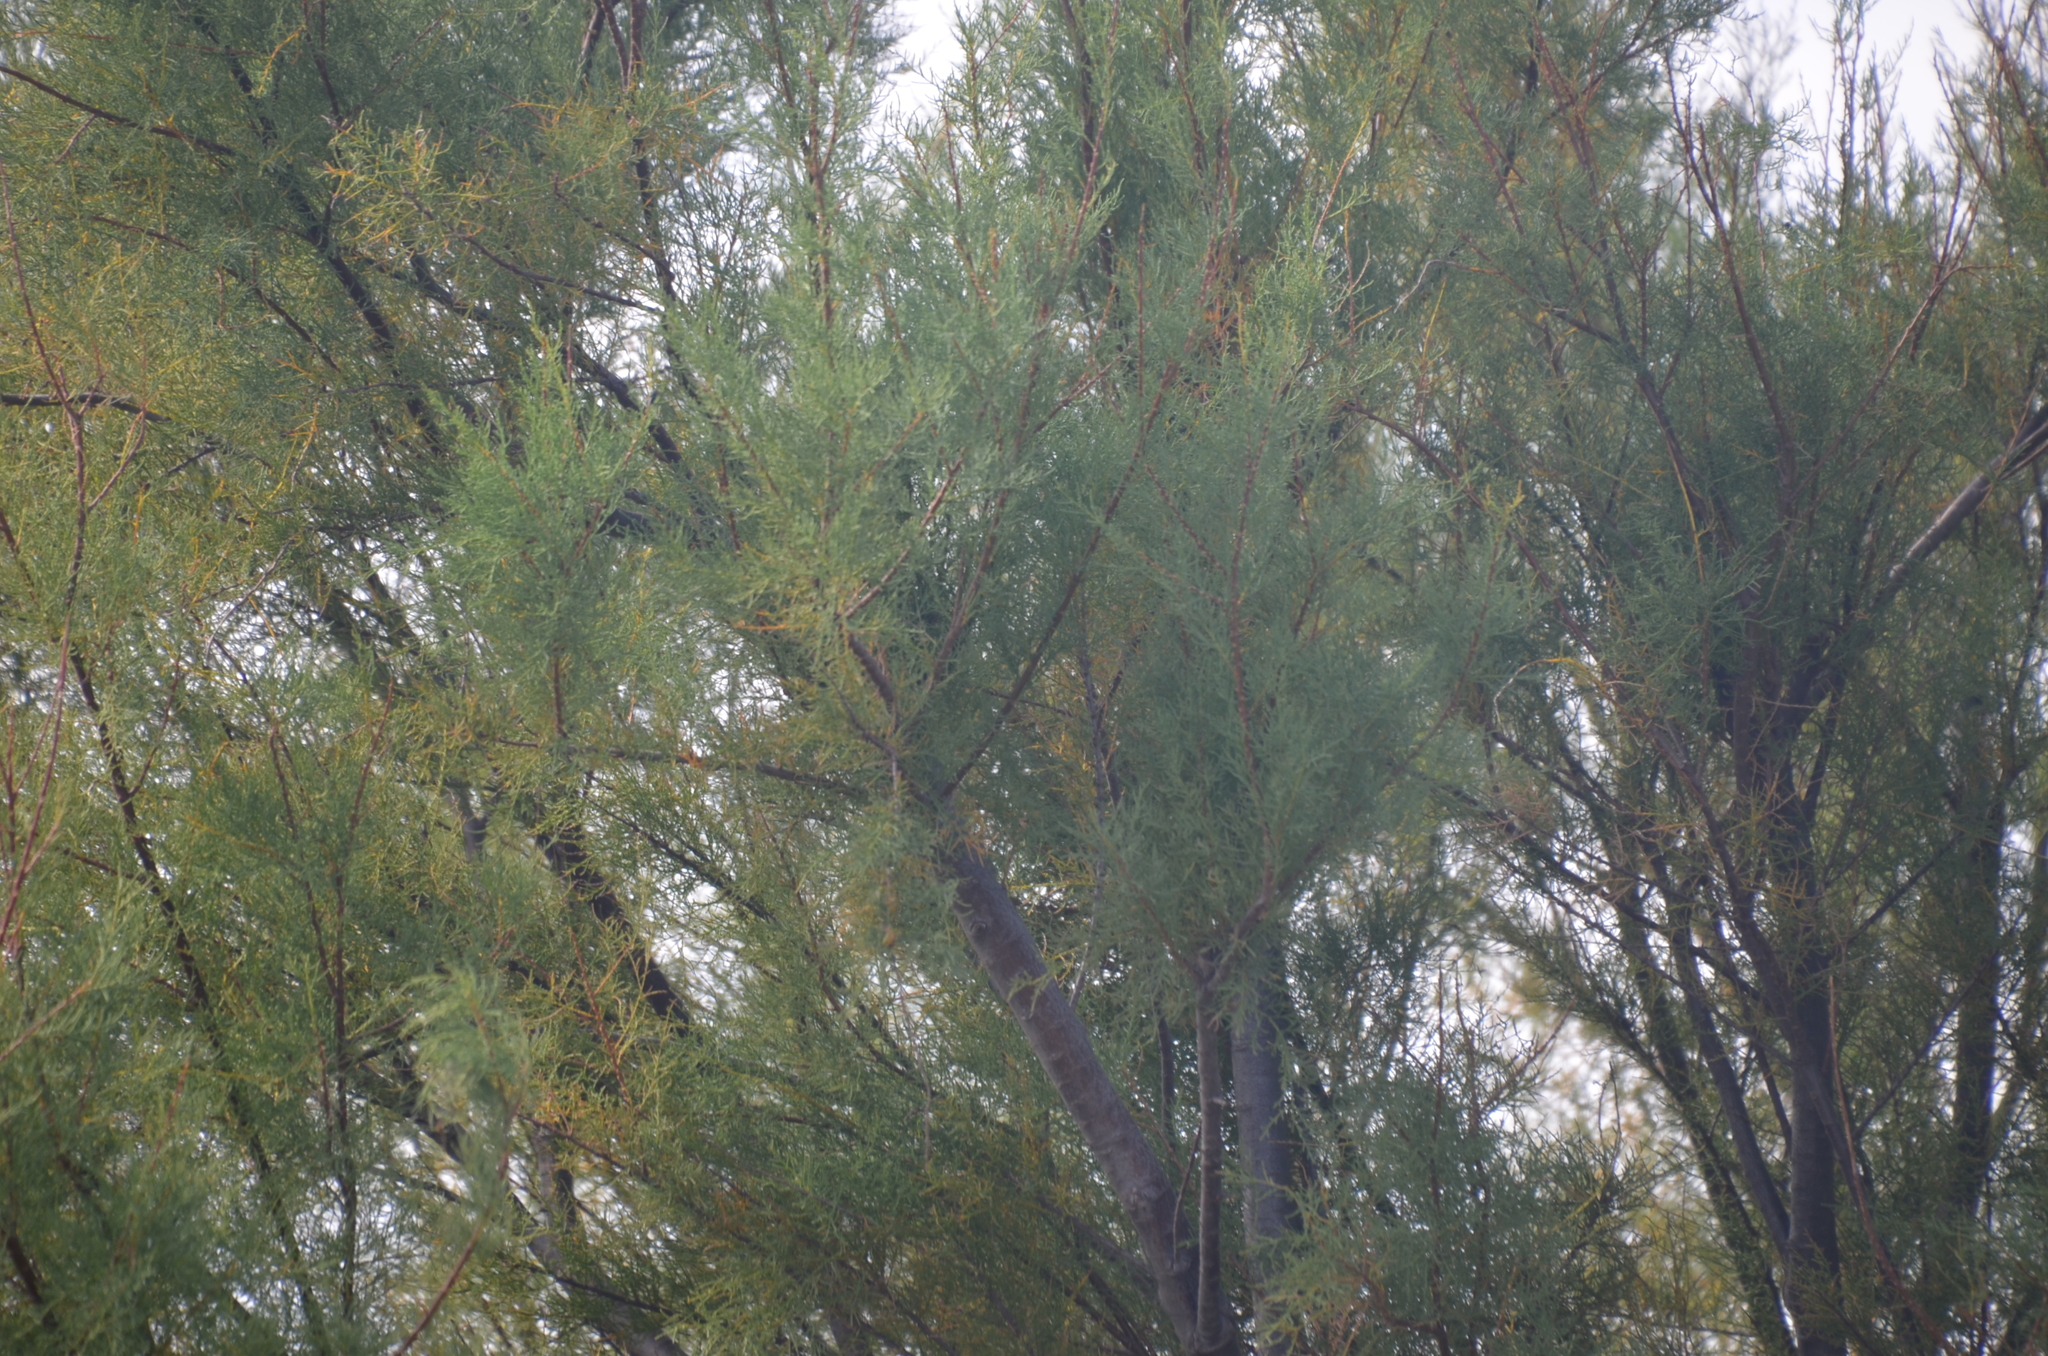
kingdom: Plantae
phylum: Tracheophyta
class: Magnoliopsida
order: Caryophyllales
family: Tamaricaceae
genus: Tamarix
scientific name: Tamarix gallica
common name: Tamarisk
